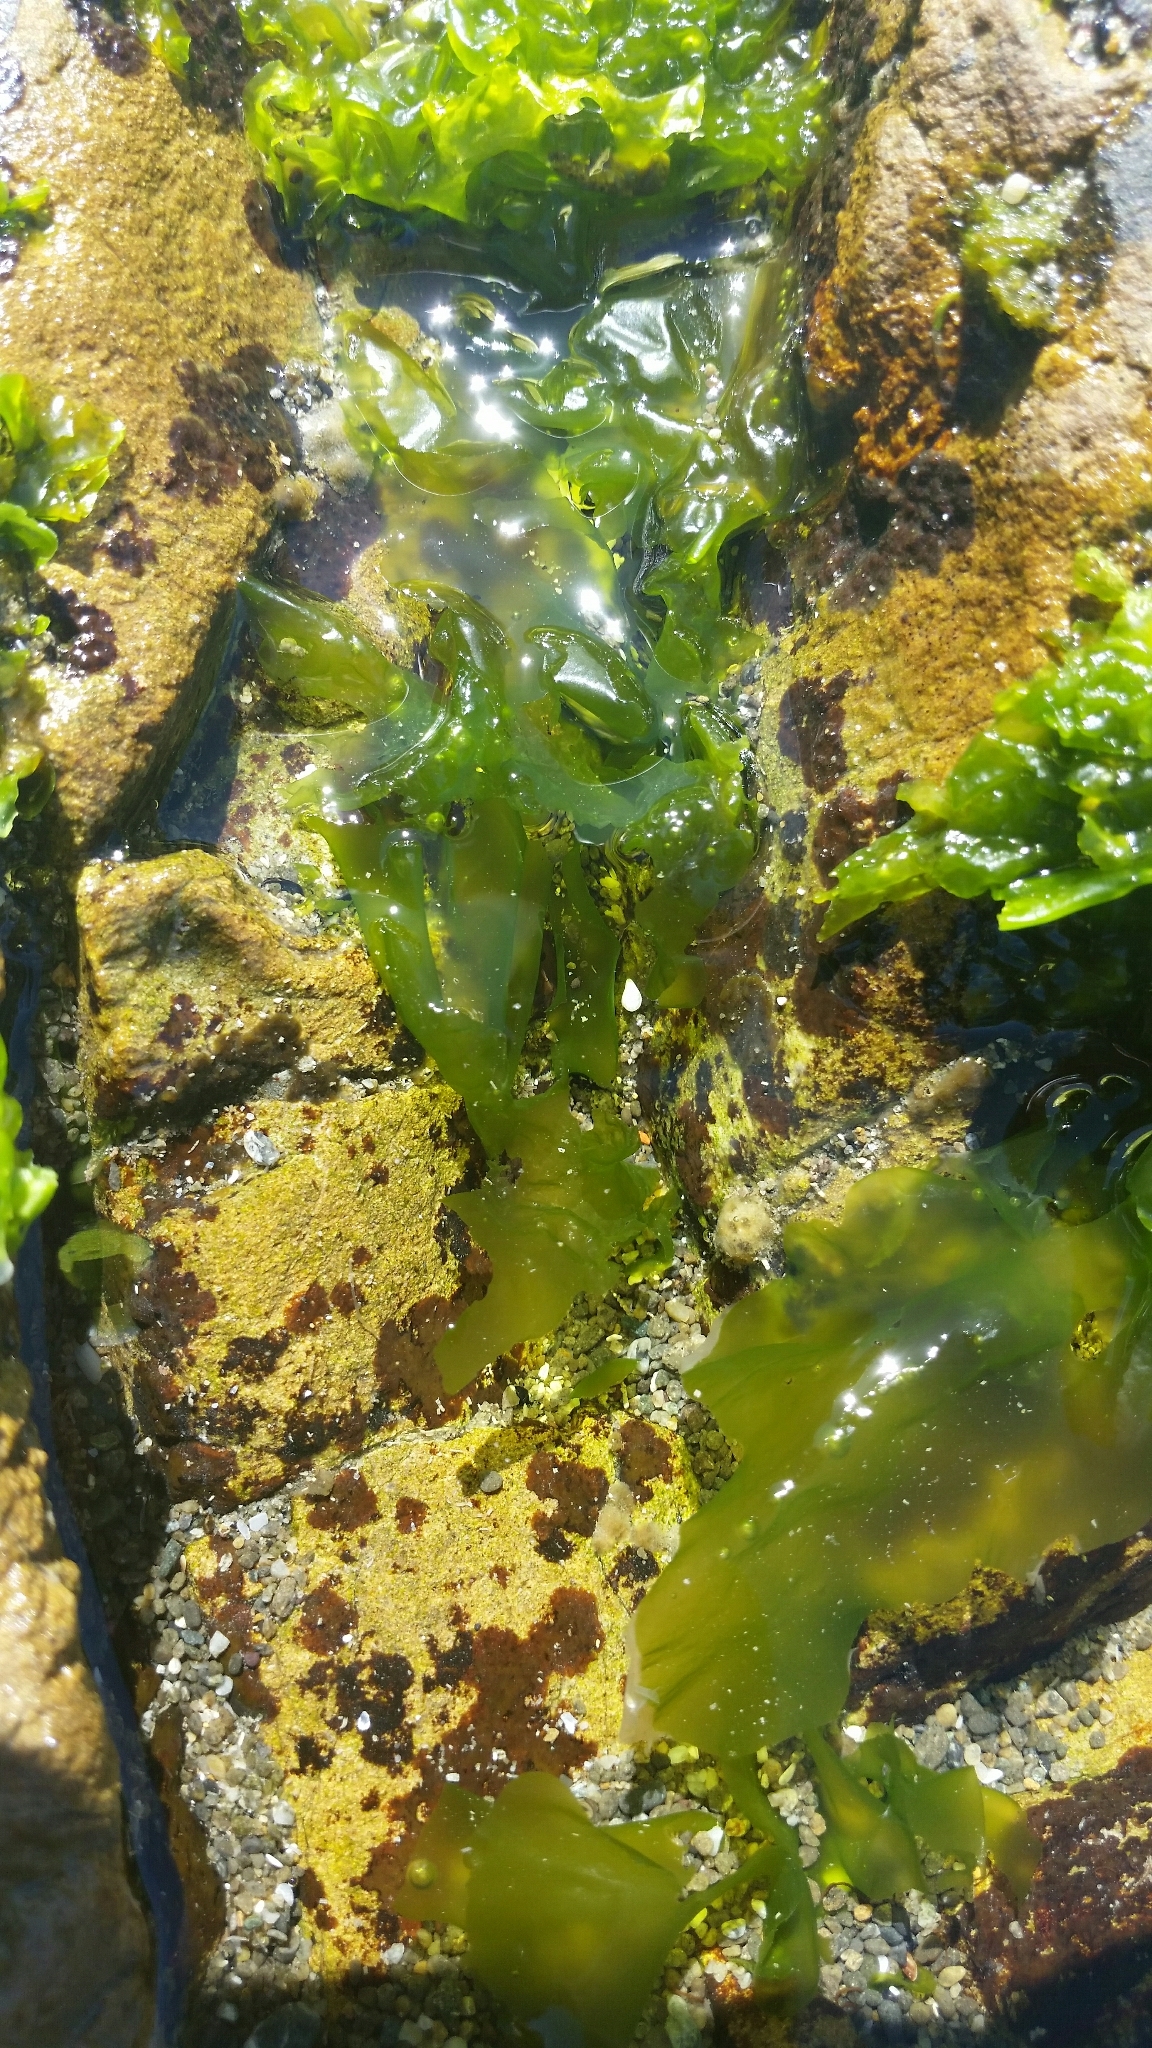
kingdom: Plantae
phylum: Chlorophyta
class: Ulvophyceae
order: Ulvales
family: Ulvaceae
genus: Ulva
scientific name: Ulva
